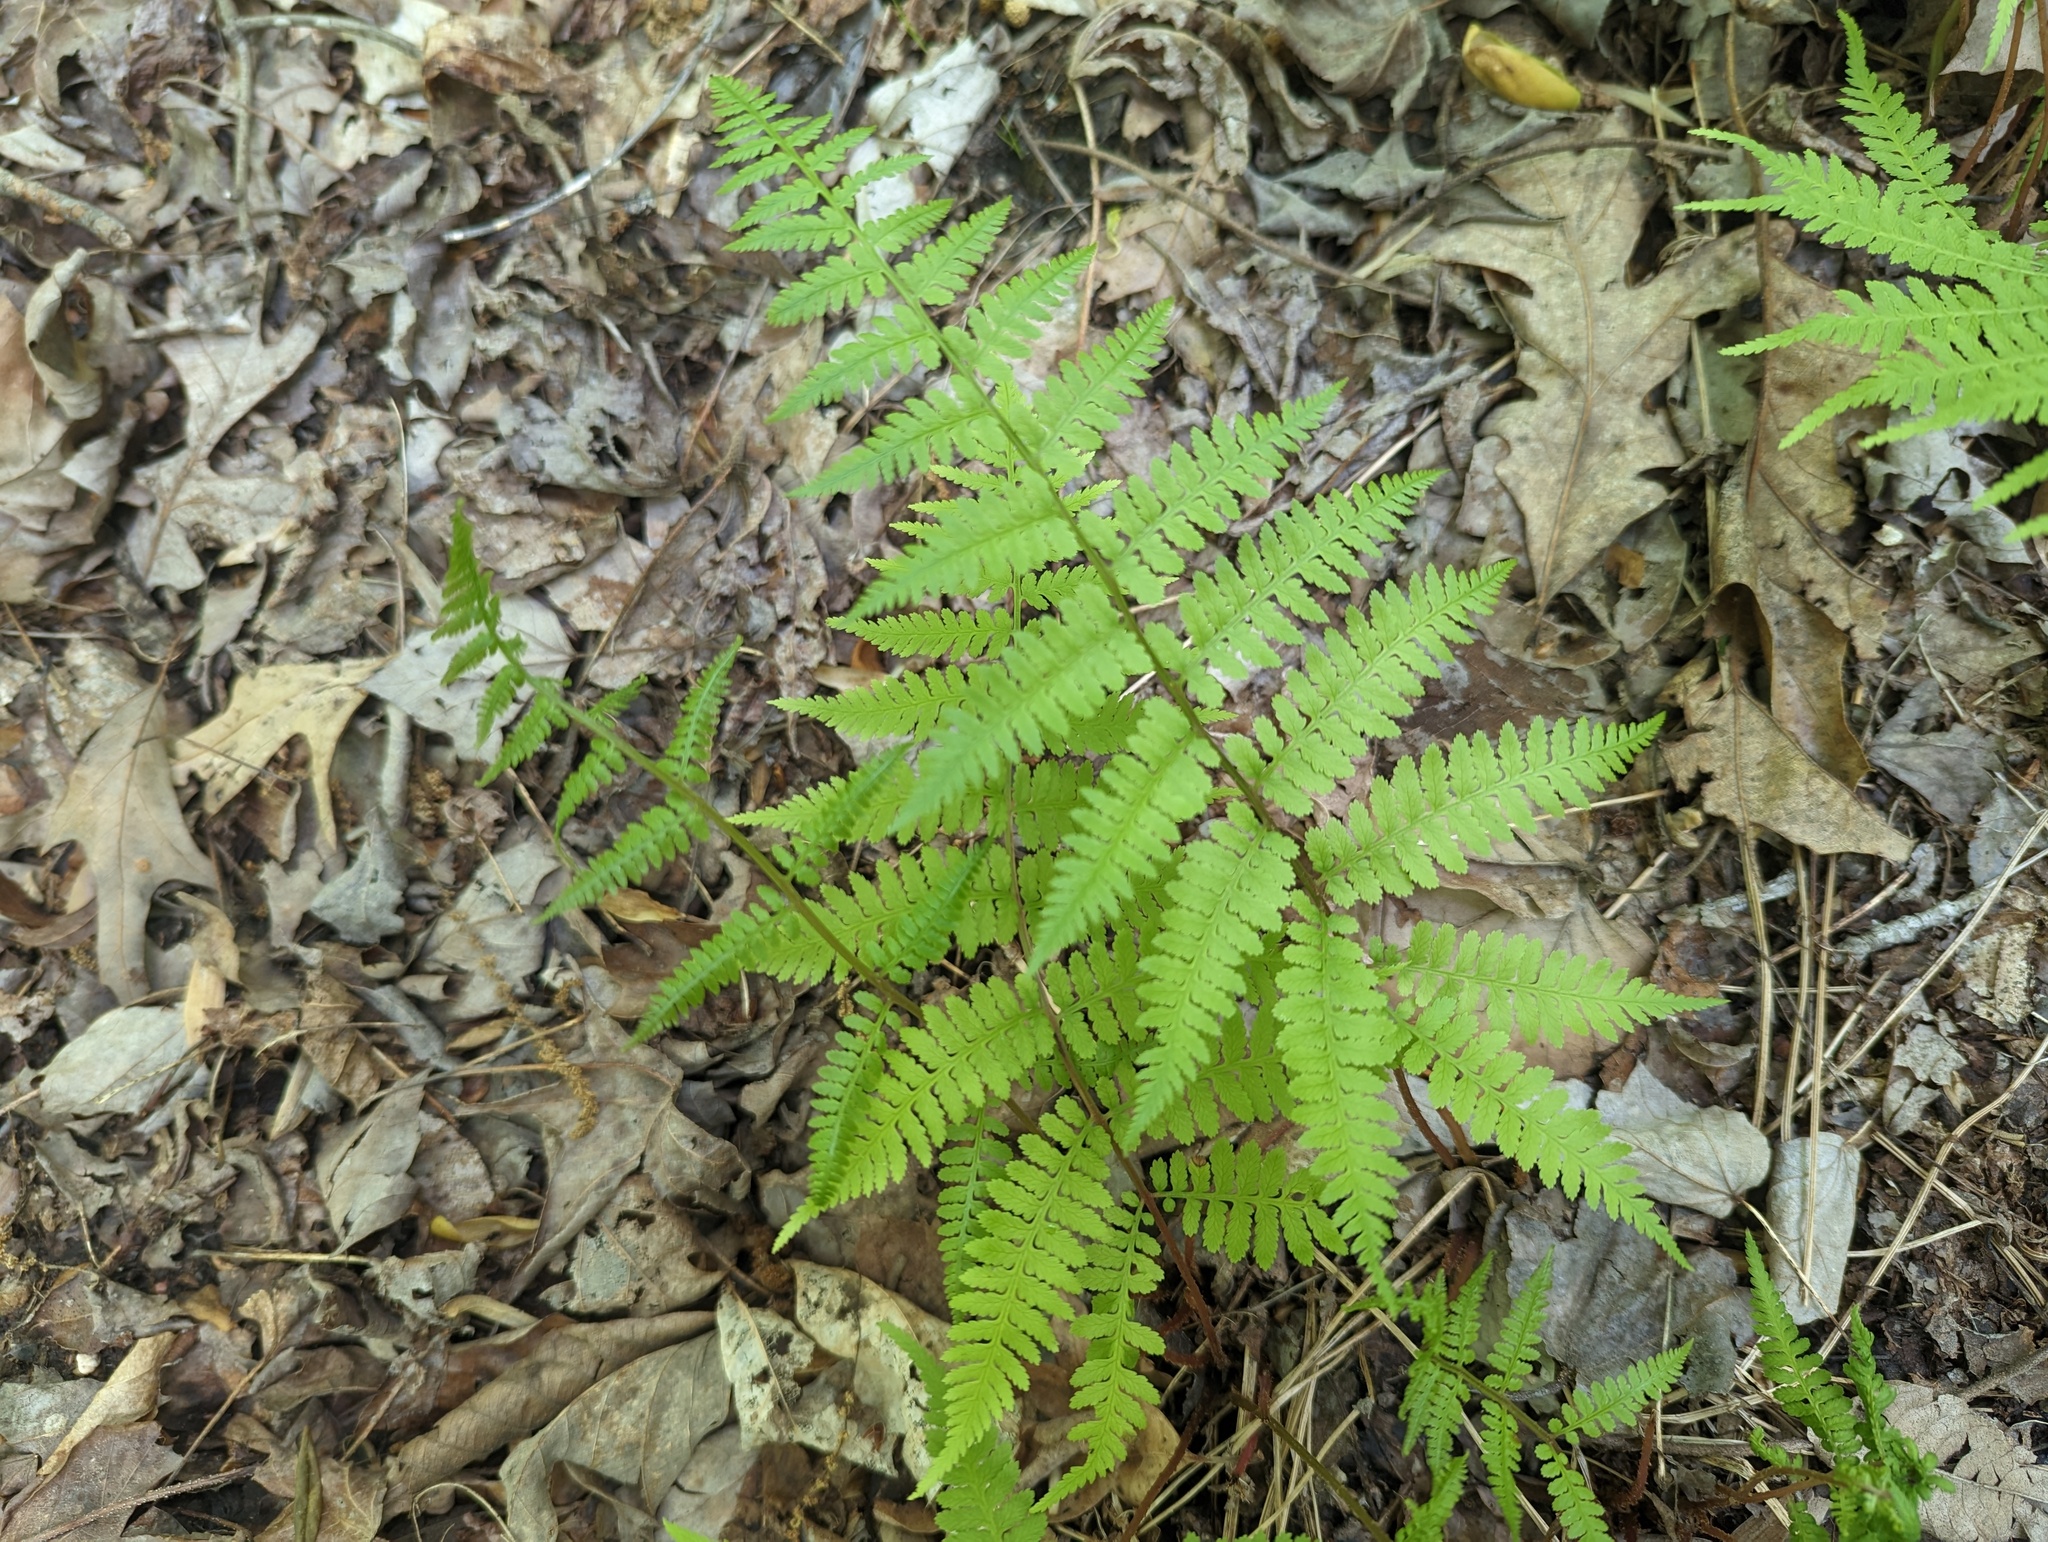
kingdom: Plantae
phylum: Tracheophyta
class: Polypodiopsida
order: Polypodiales
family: Athyriaceae
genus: Athyrium
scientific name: Athyrium asplenioides
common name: Southern lady fern
